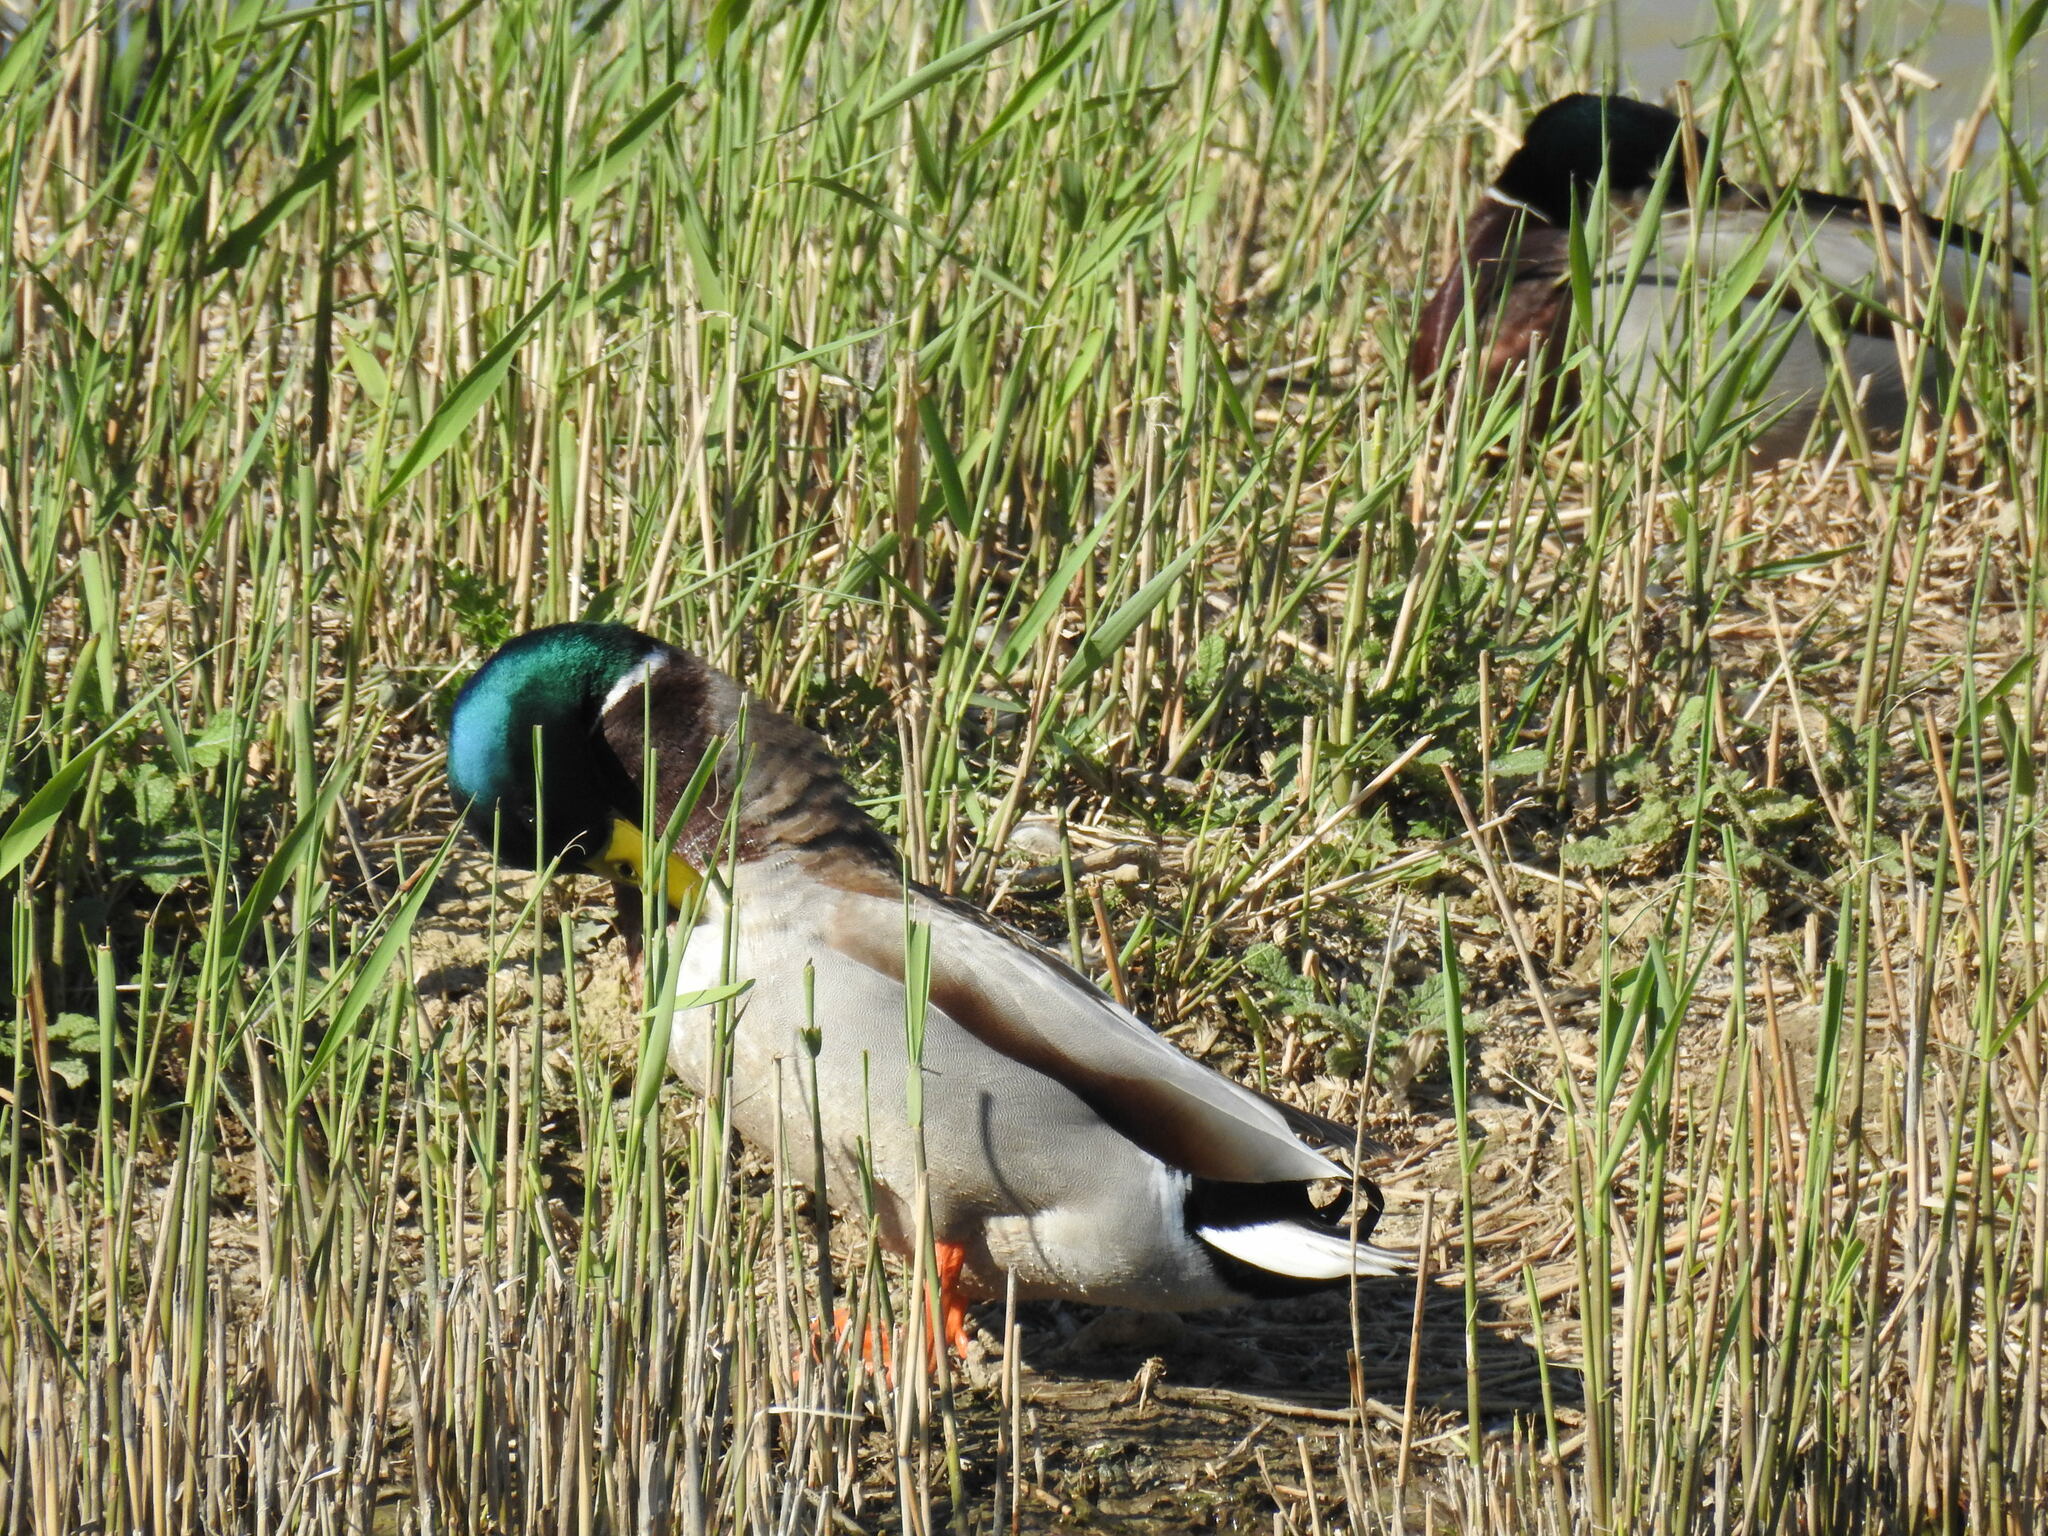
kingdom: Animalia
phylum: Chordata
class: Aves
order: Anseriformes
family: Anatidae
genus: Anas
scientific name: Anas platyrhynchos
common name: Mallard
